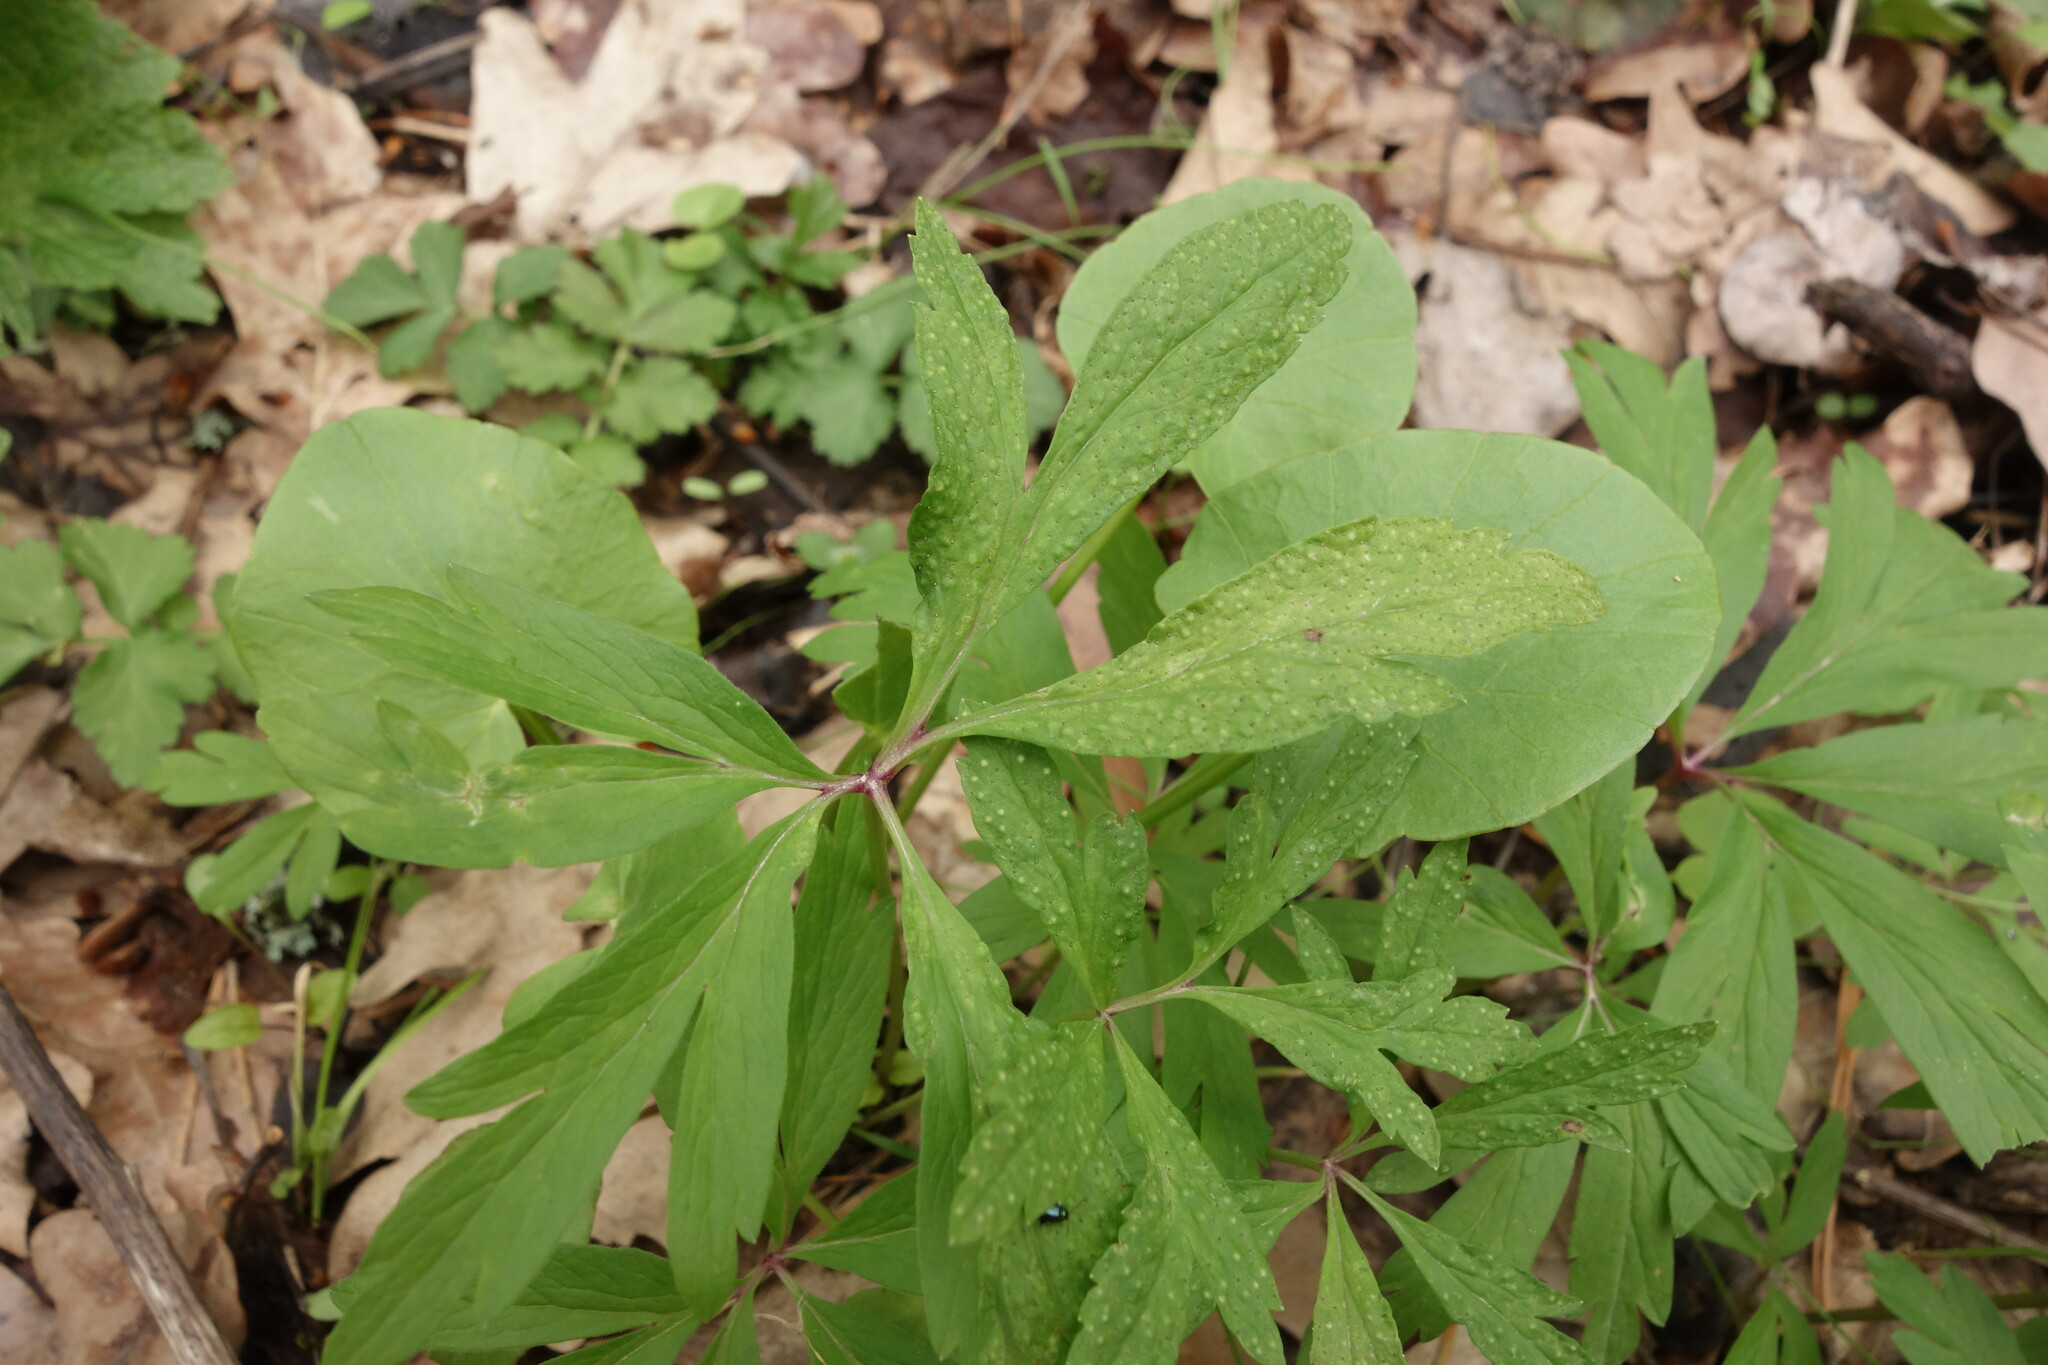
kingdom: Fungi
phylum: Basidiomycota
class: Pucciniomycetes
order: Pucciniales
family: Tranzscheliaceae
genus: Tranzschelia
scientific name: Tranzschelia pruni-spinosae
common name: Blackthorn rust
